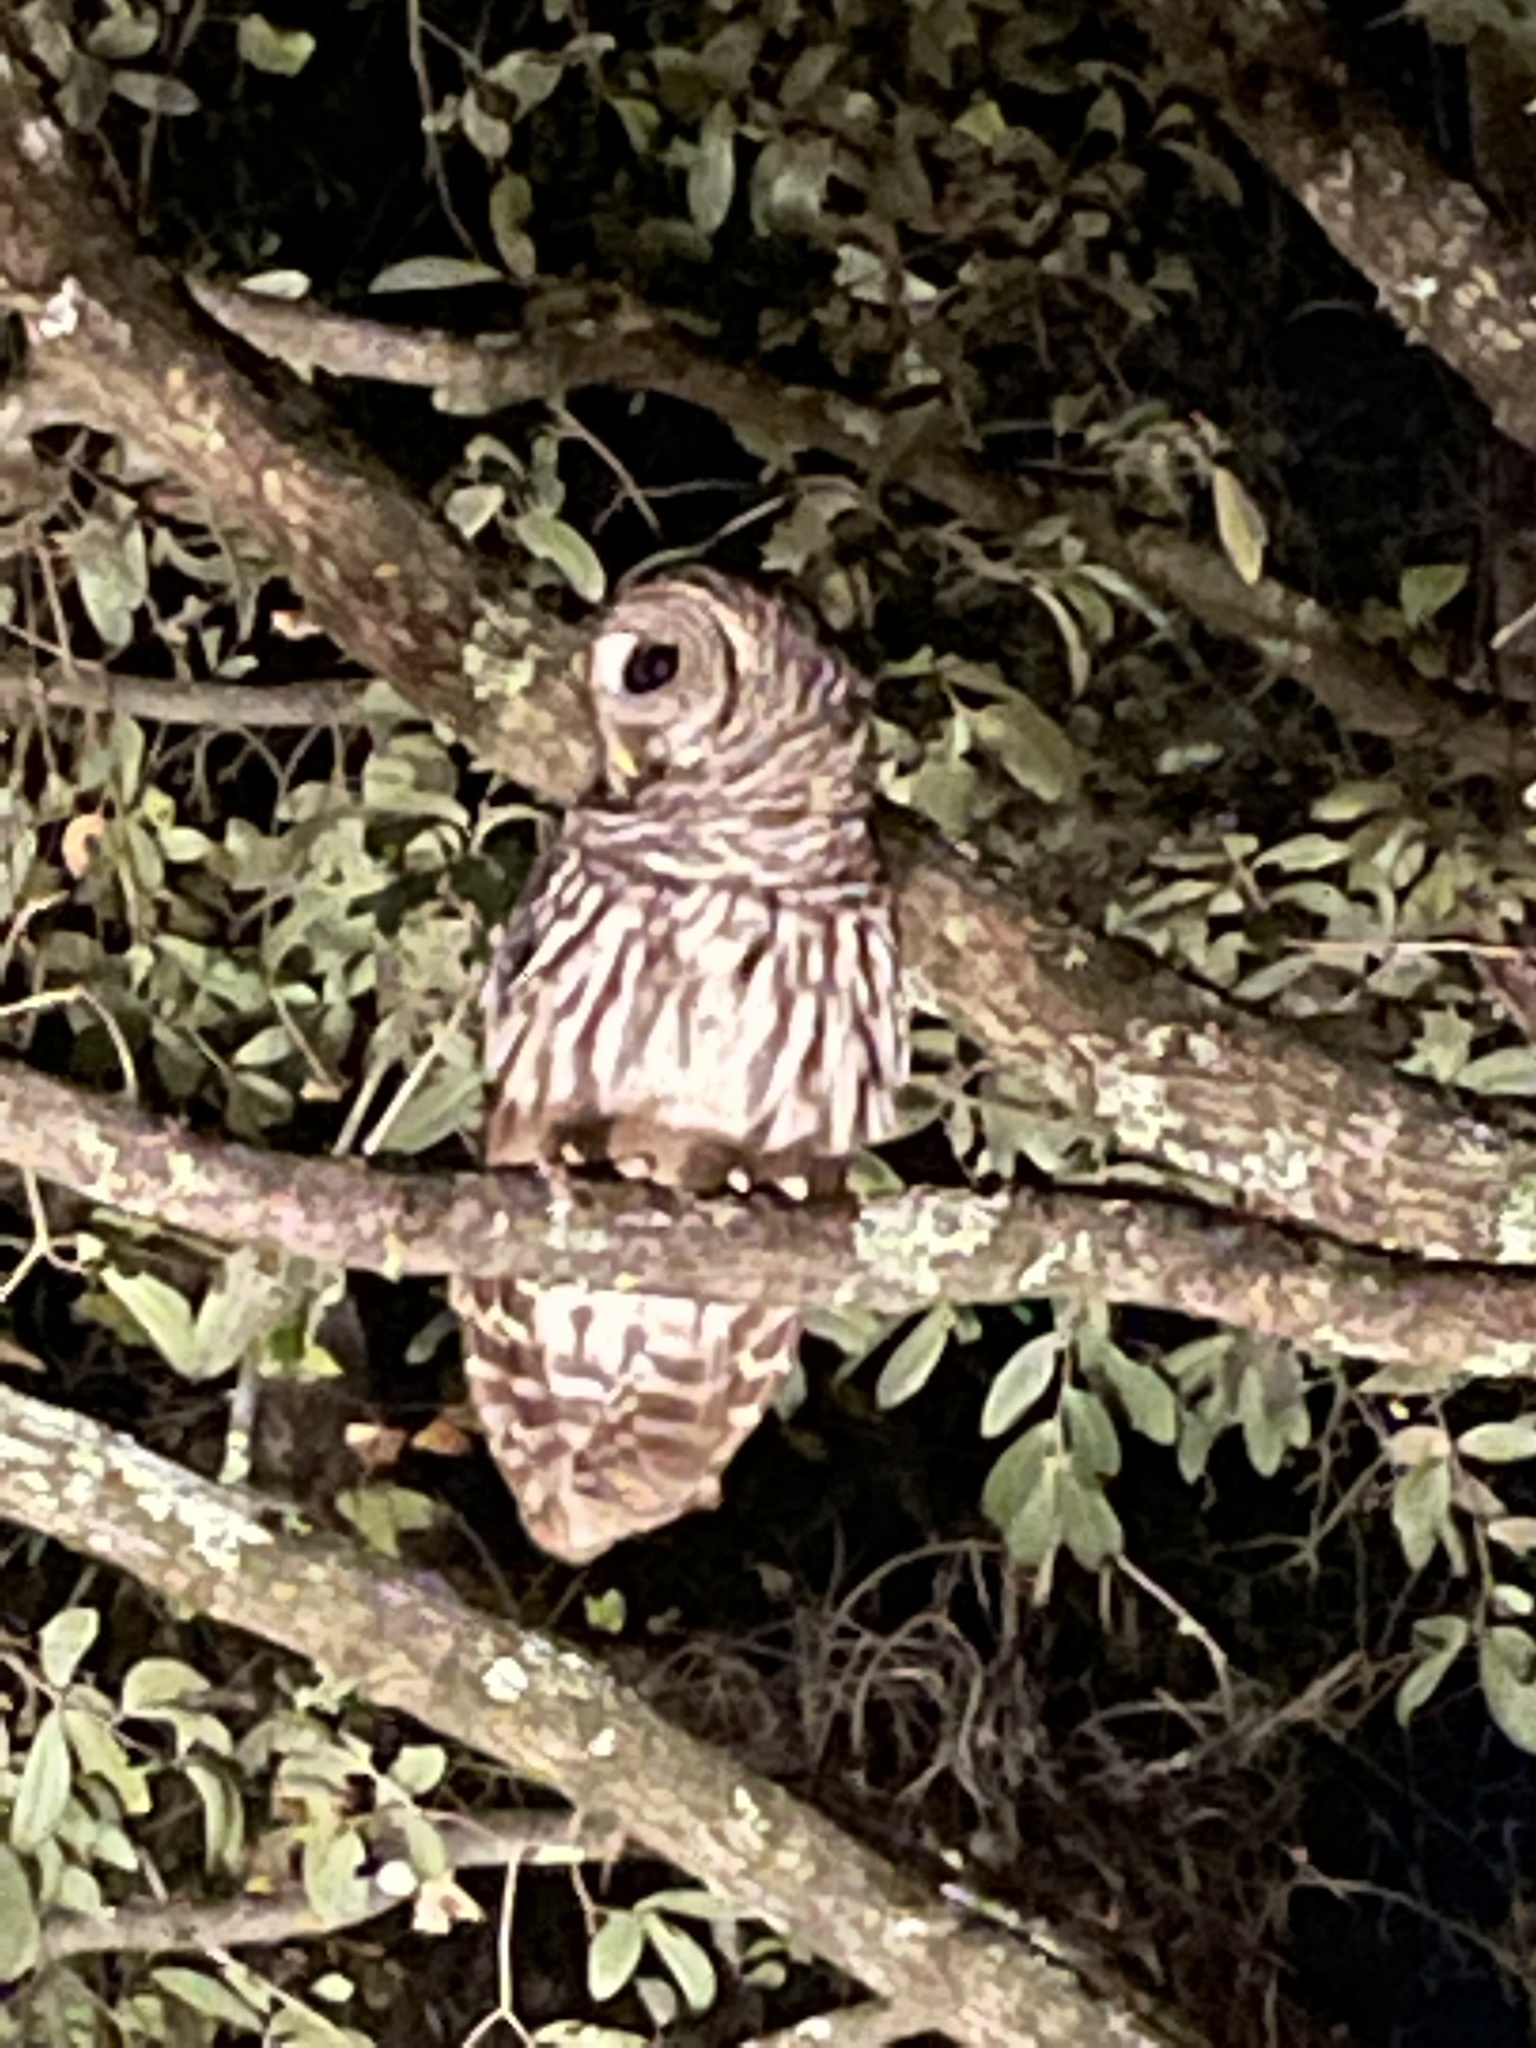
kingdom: Animalia
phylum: Chordata
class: Aves
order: Strigiformes
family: Strigidae
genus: Strix
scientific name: Strix varia
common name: Barred owl
